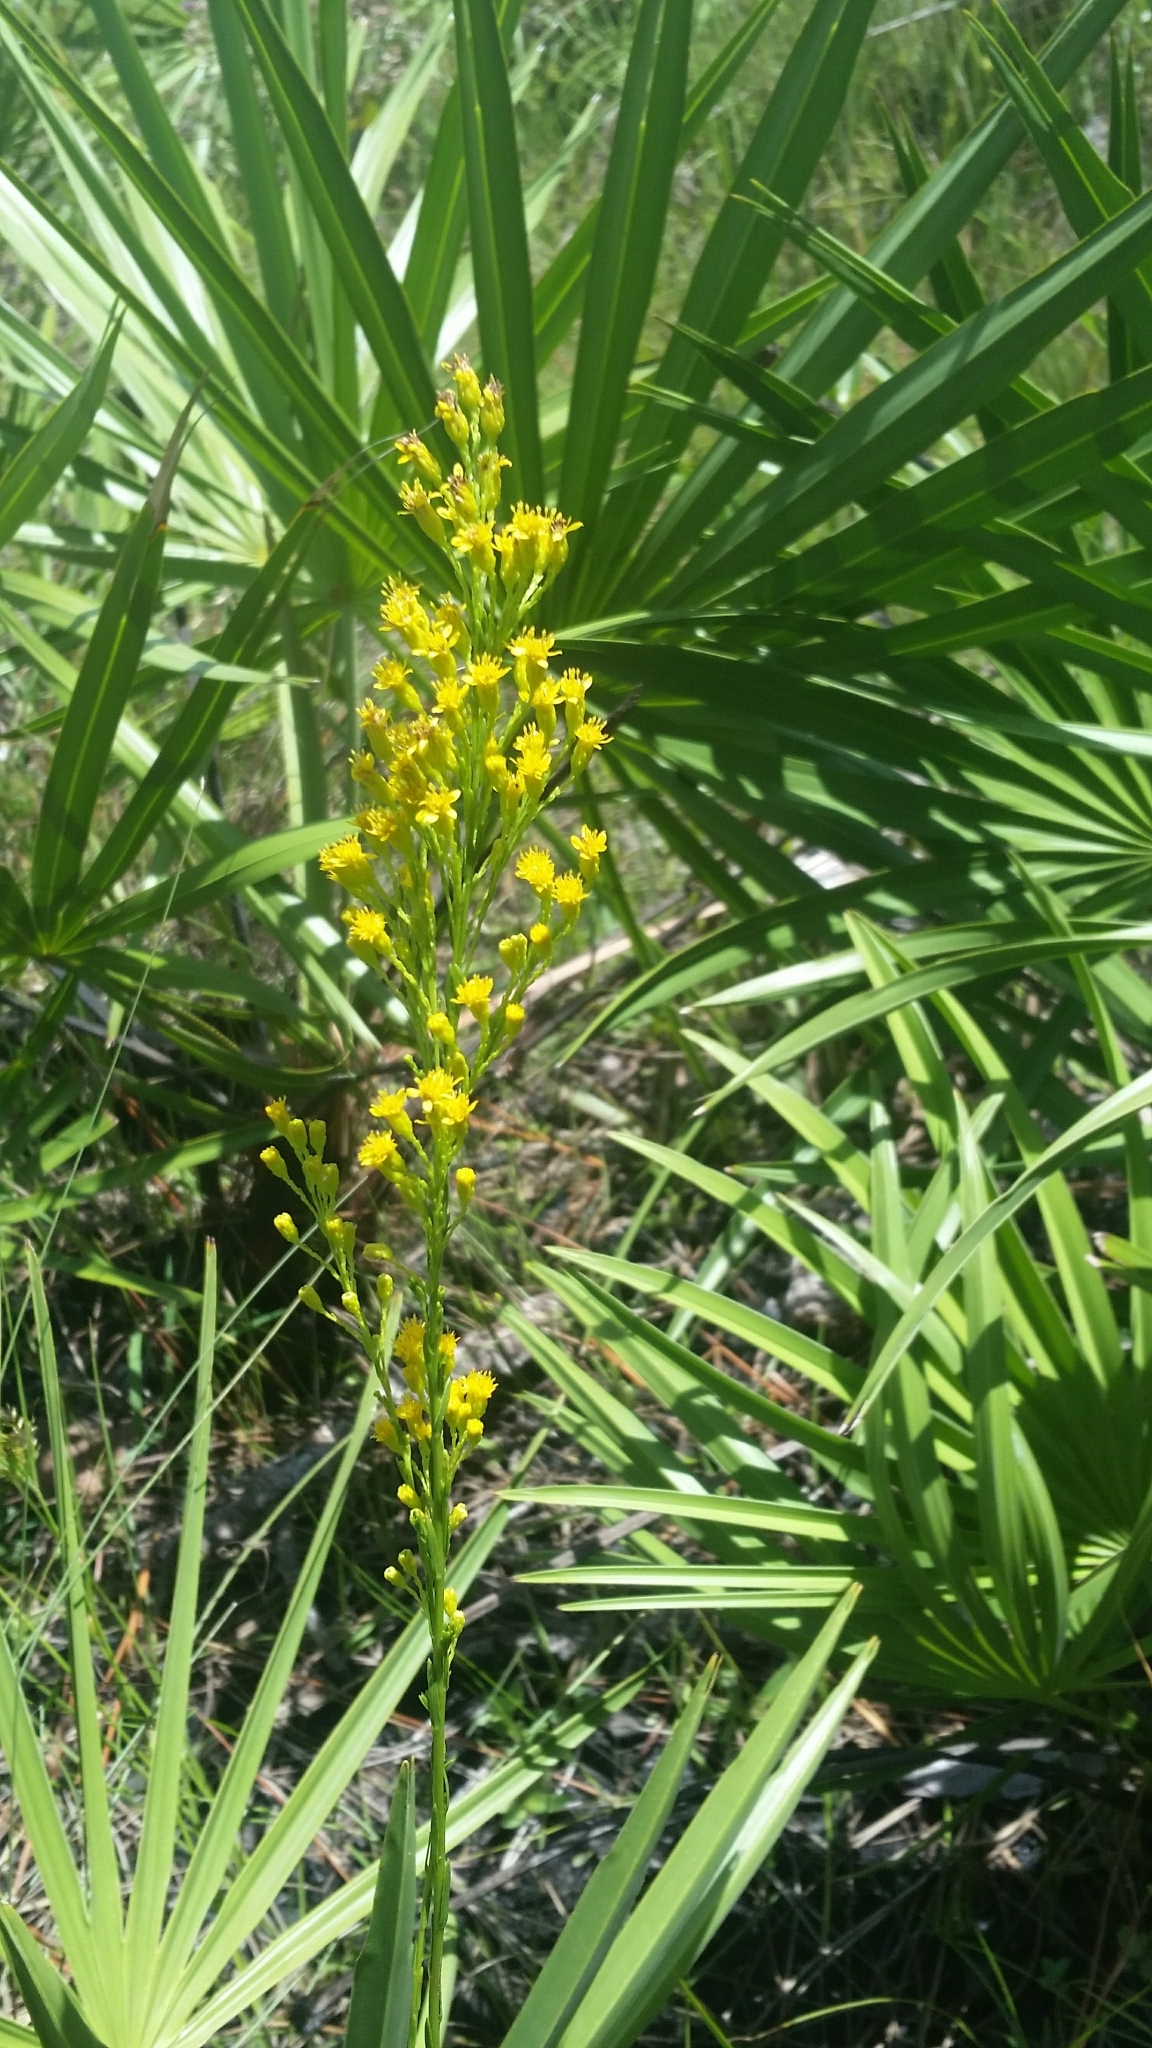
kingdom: Plantae
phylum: Tracheophyta
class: Magnoliopsida
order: Asterales
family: Asteraceae
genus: Solidago
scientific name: Solidago virgata
